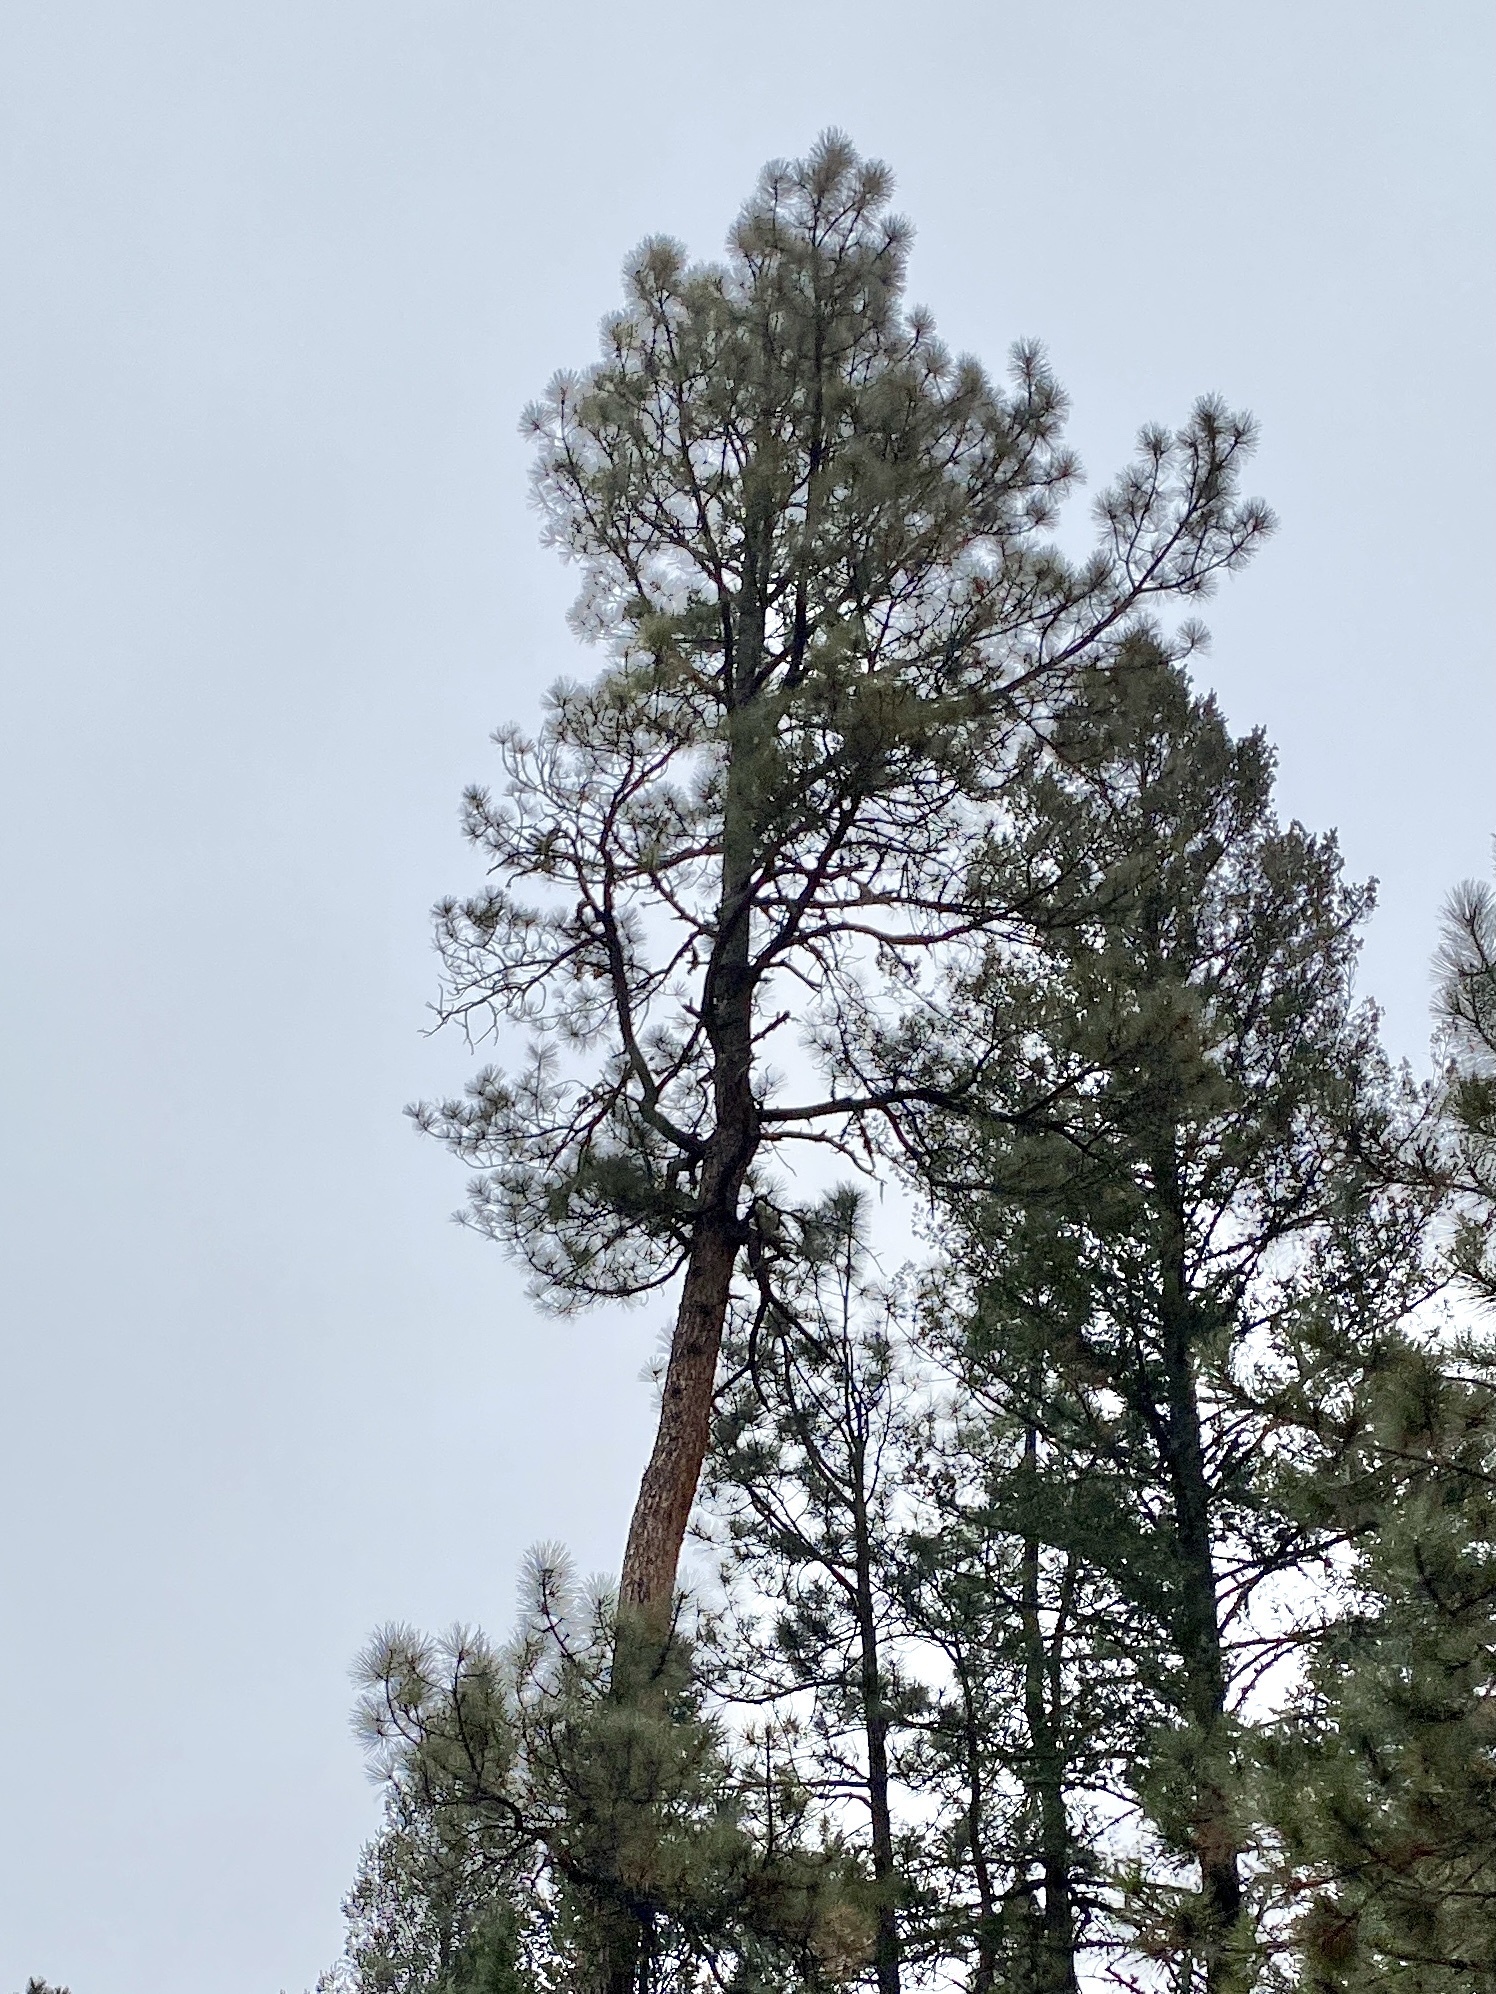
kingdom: Plantae
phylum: Tracheophyta
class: Pinopsida
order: Pinales
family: Pinaceae
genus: Pinus
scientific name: Pinus ponderosa
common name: Western yellow-pine
